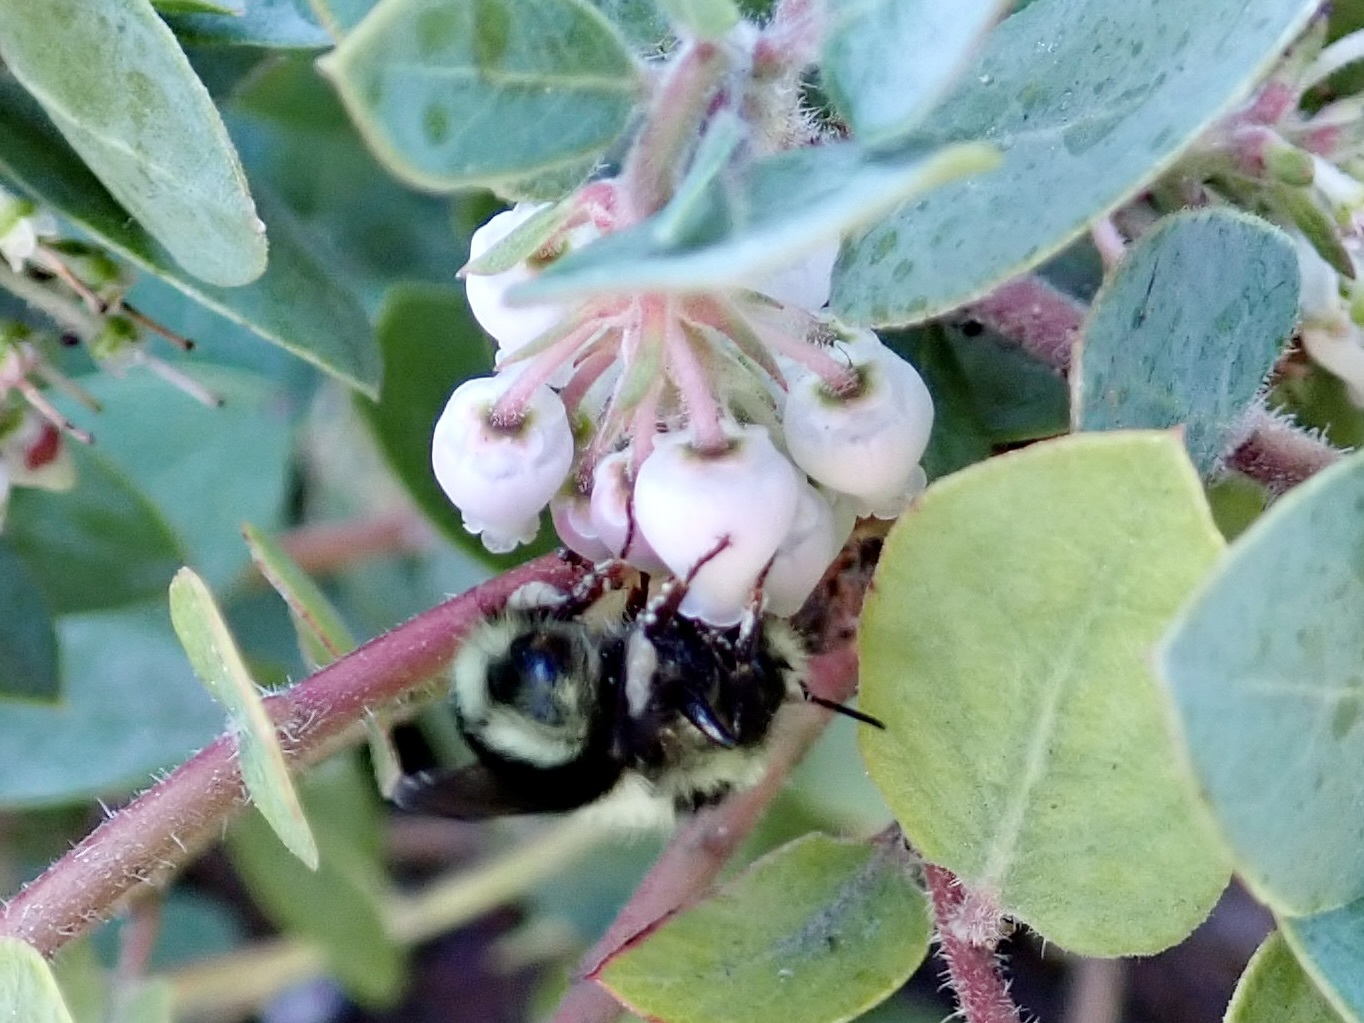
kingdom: Animalia
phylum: Arthropoda
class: Insecta
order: Hymenoptera
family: Apidae
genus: Bombus
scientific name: Bombus melanopygus
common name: Black tail bumble bee
